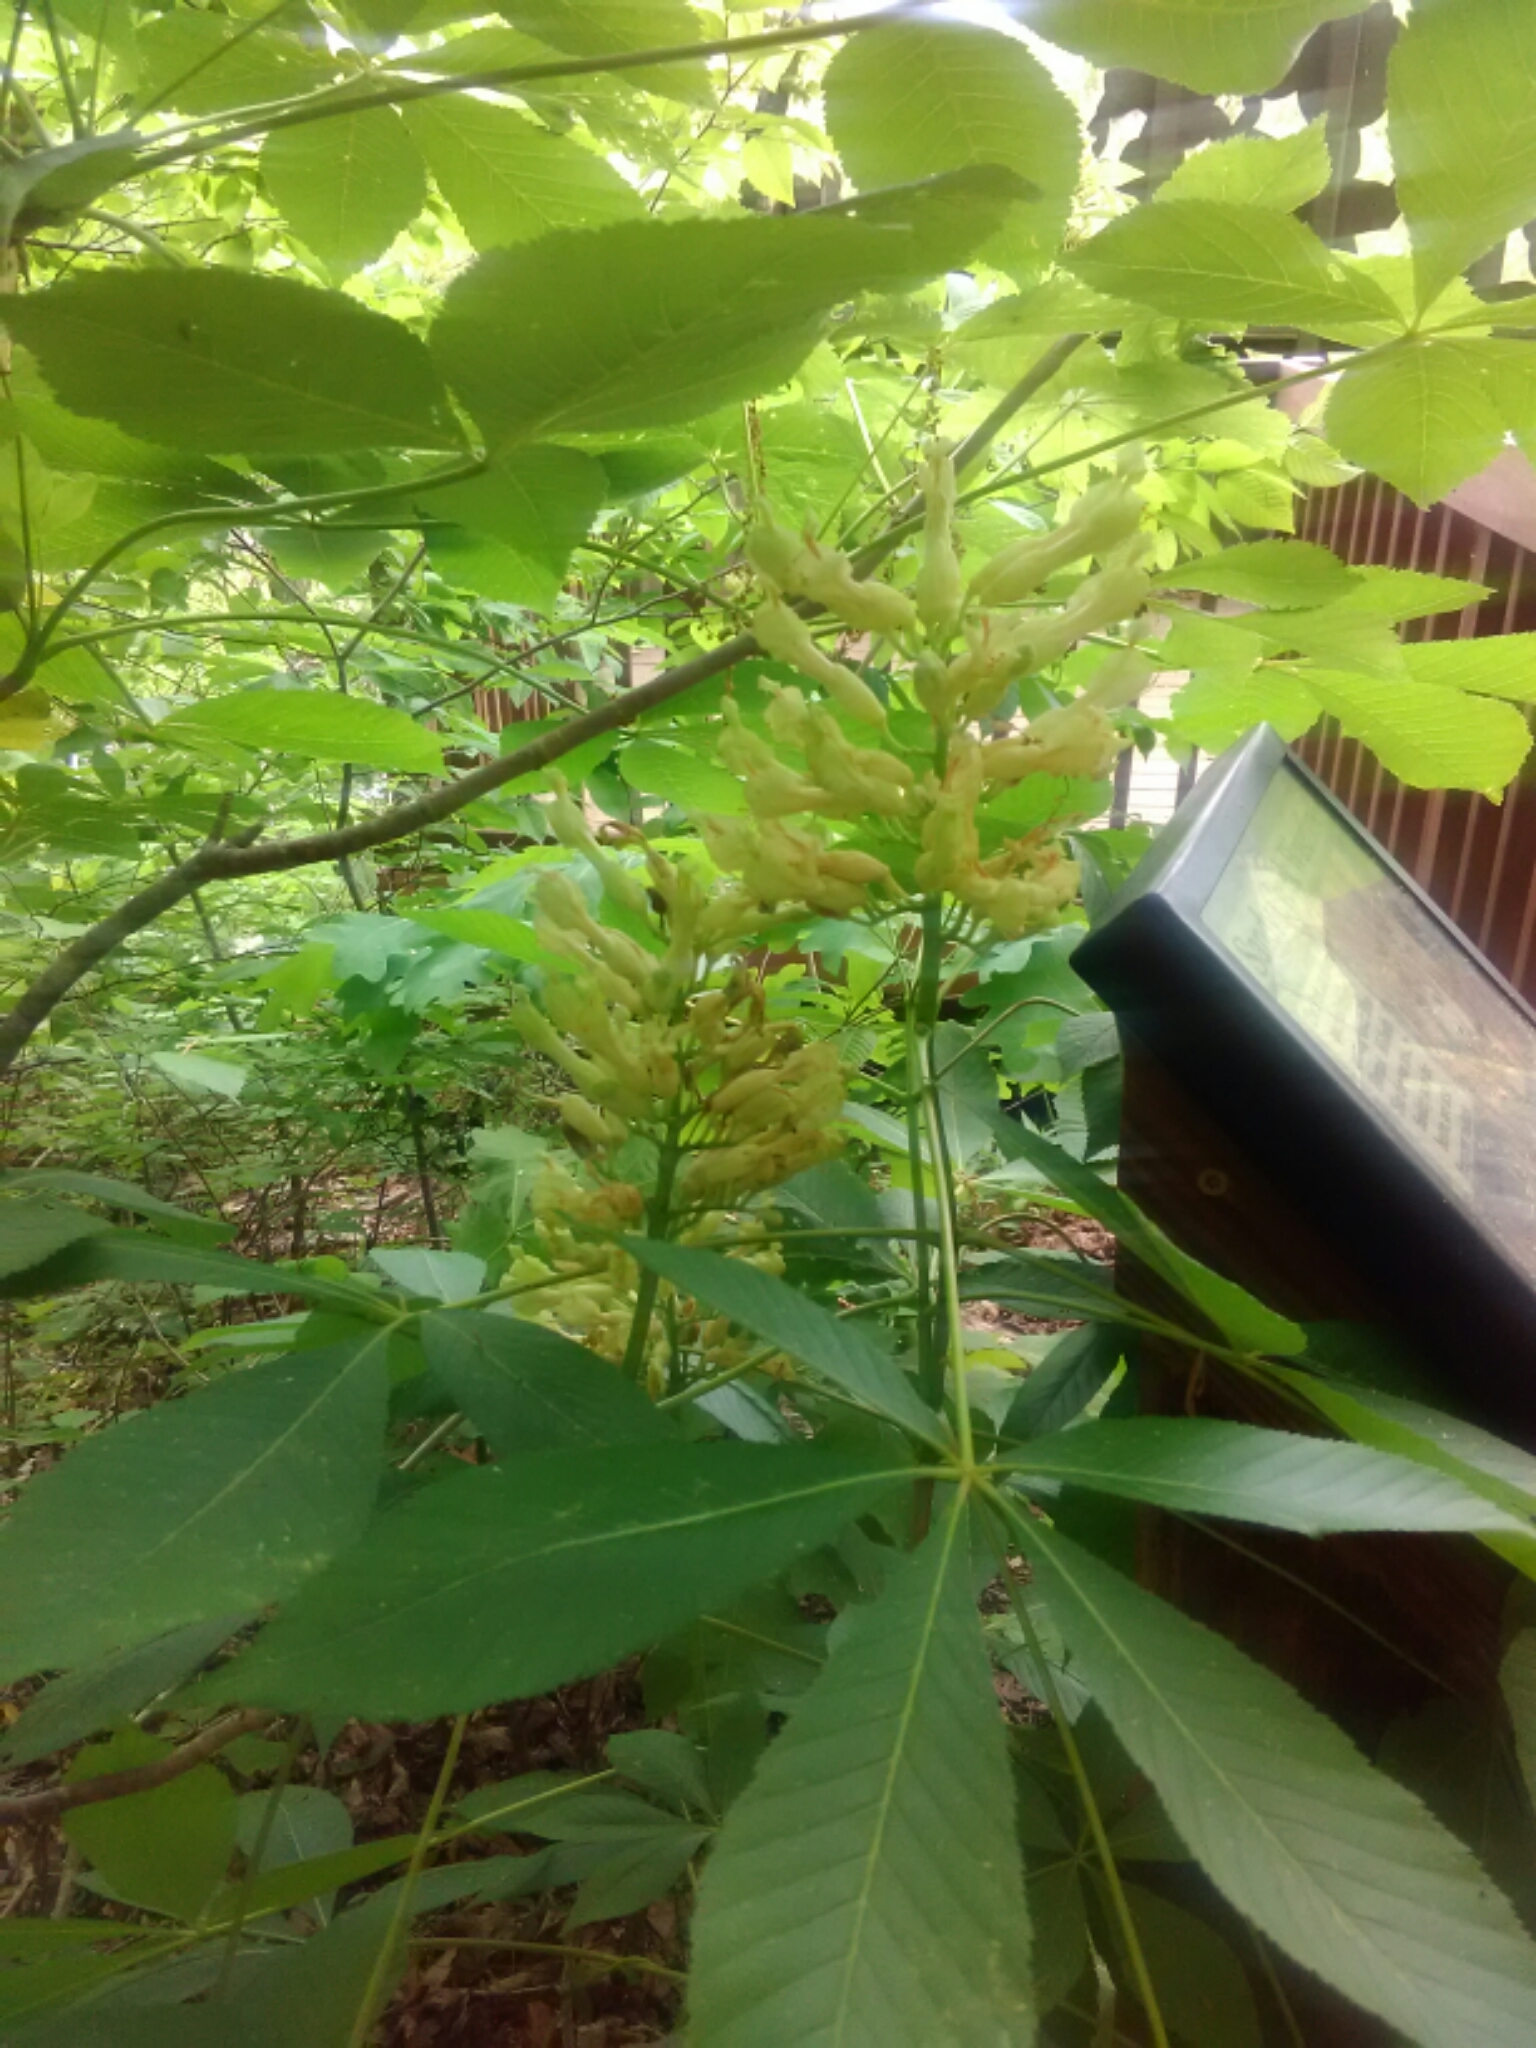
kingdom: Plantae
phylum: Tracheophyta
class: Magnoliopsida
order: Sapindales
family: Sapindaceae
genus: Aesculus
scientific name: Aesculus sylvatica
